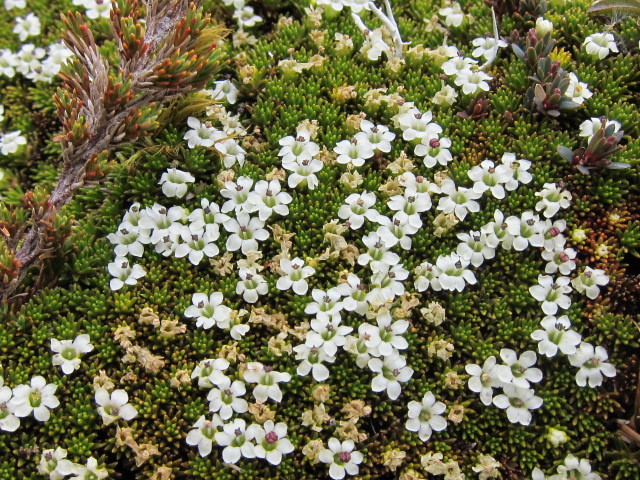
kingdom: Plantae
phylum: Tracheophyta
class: Magnoliopsida
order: Asterales
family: Stylidiaceae
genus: Phyllachne
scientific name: Phyllachne colensoi
